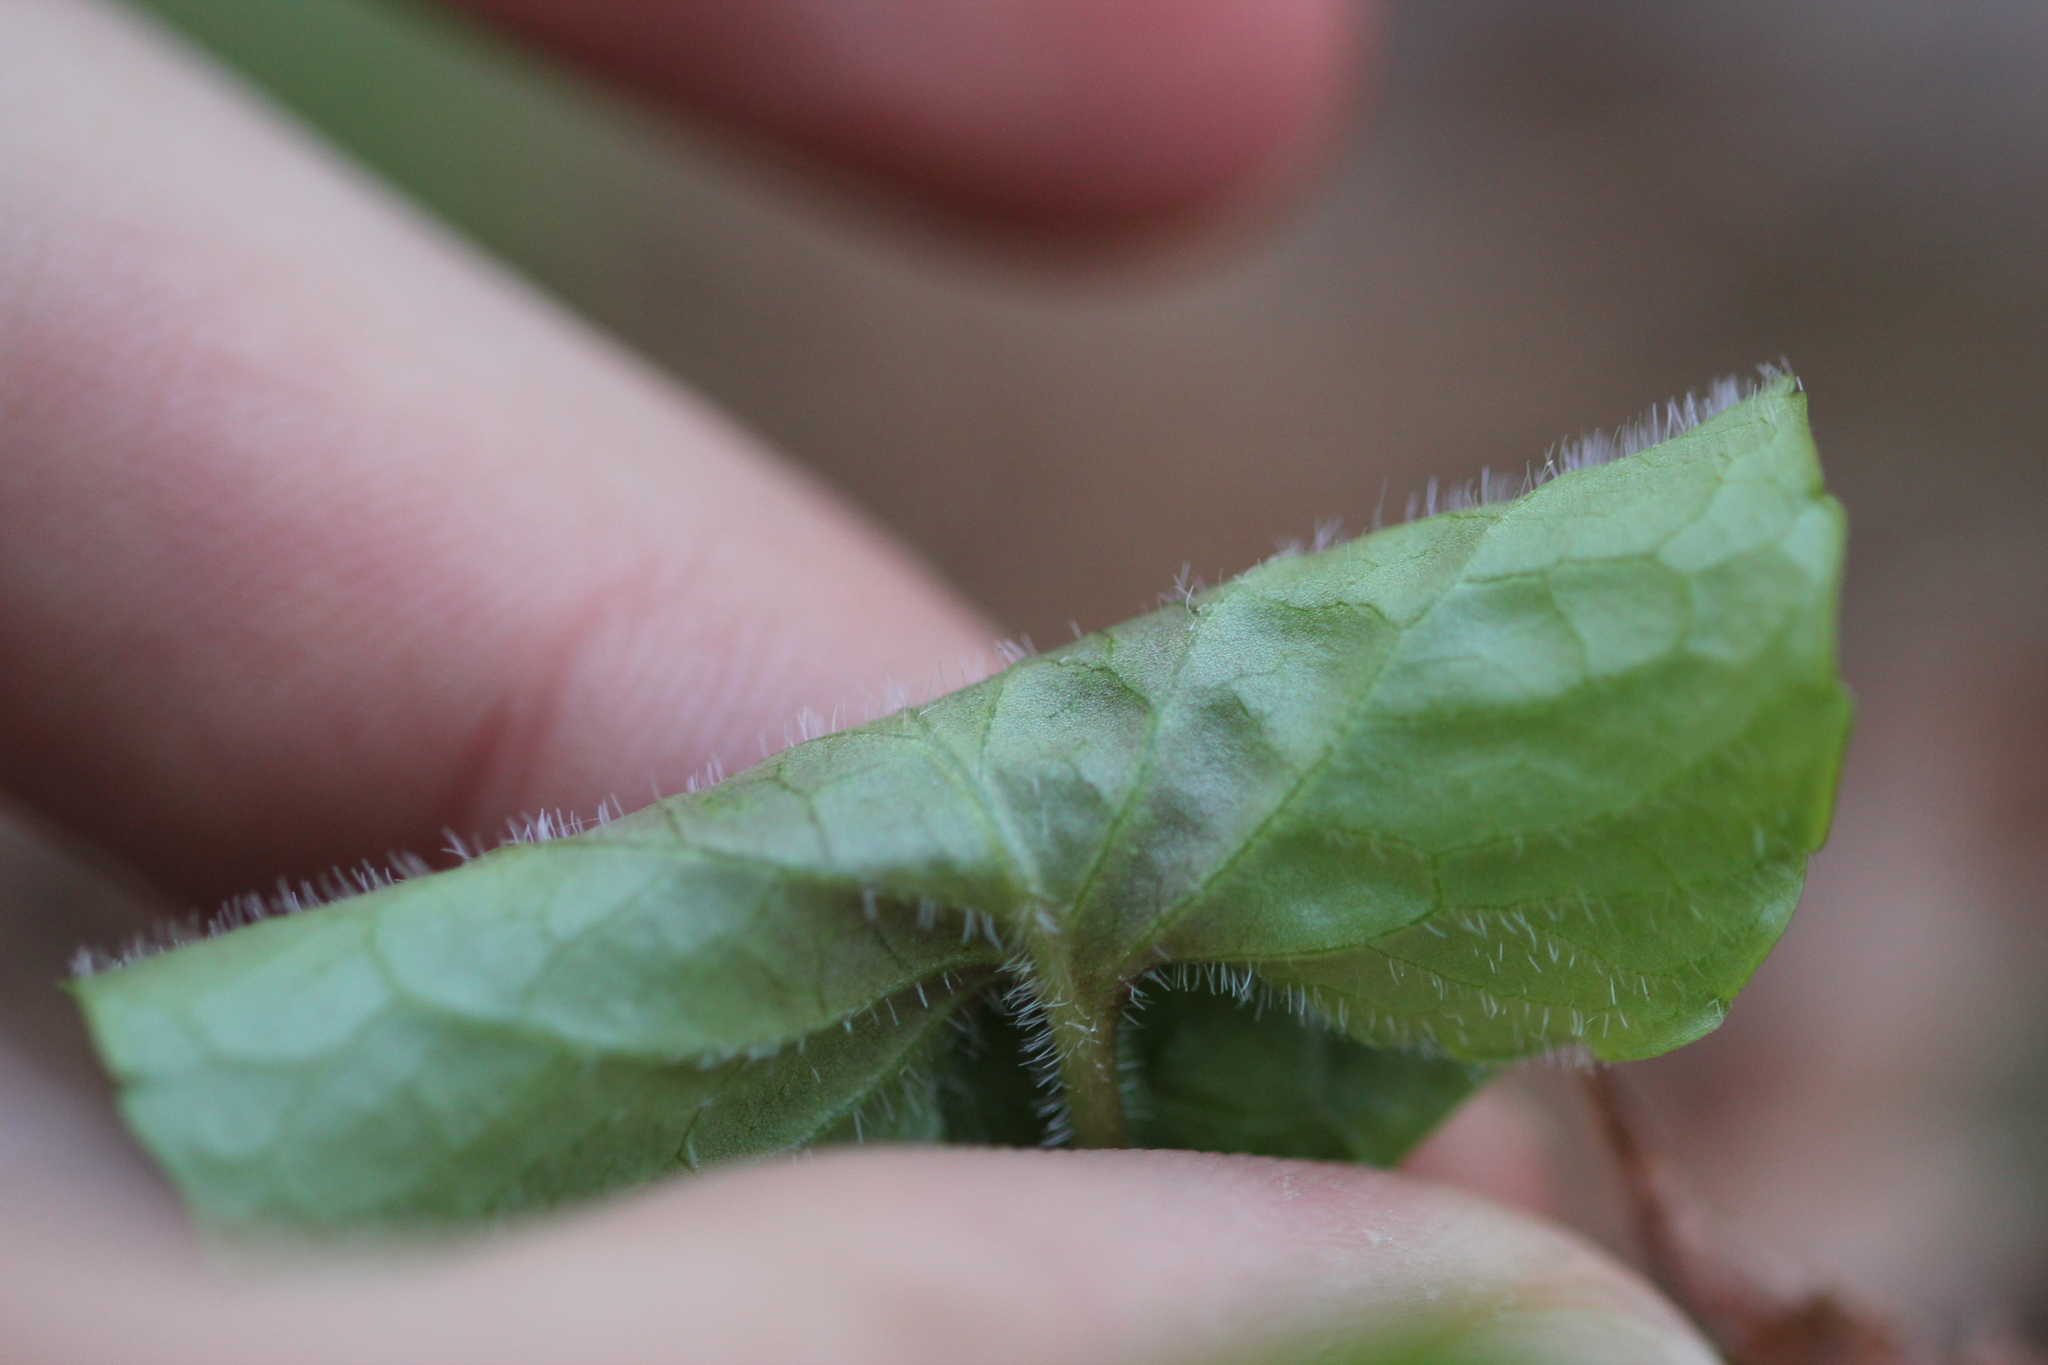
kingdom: Plantae
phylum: Tracheophyta
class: Magnoliopsida
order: Malpighiales
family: Violaceae
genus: Viola
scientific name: Viola renifolia
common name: Kidney-leaf violet
